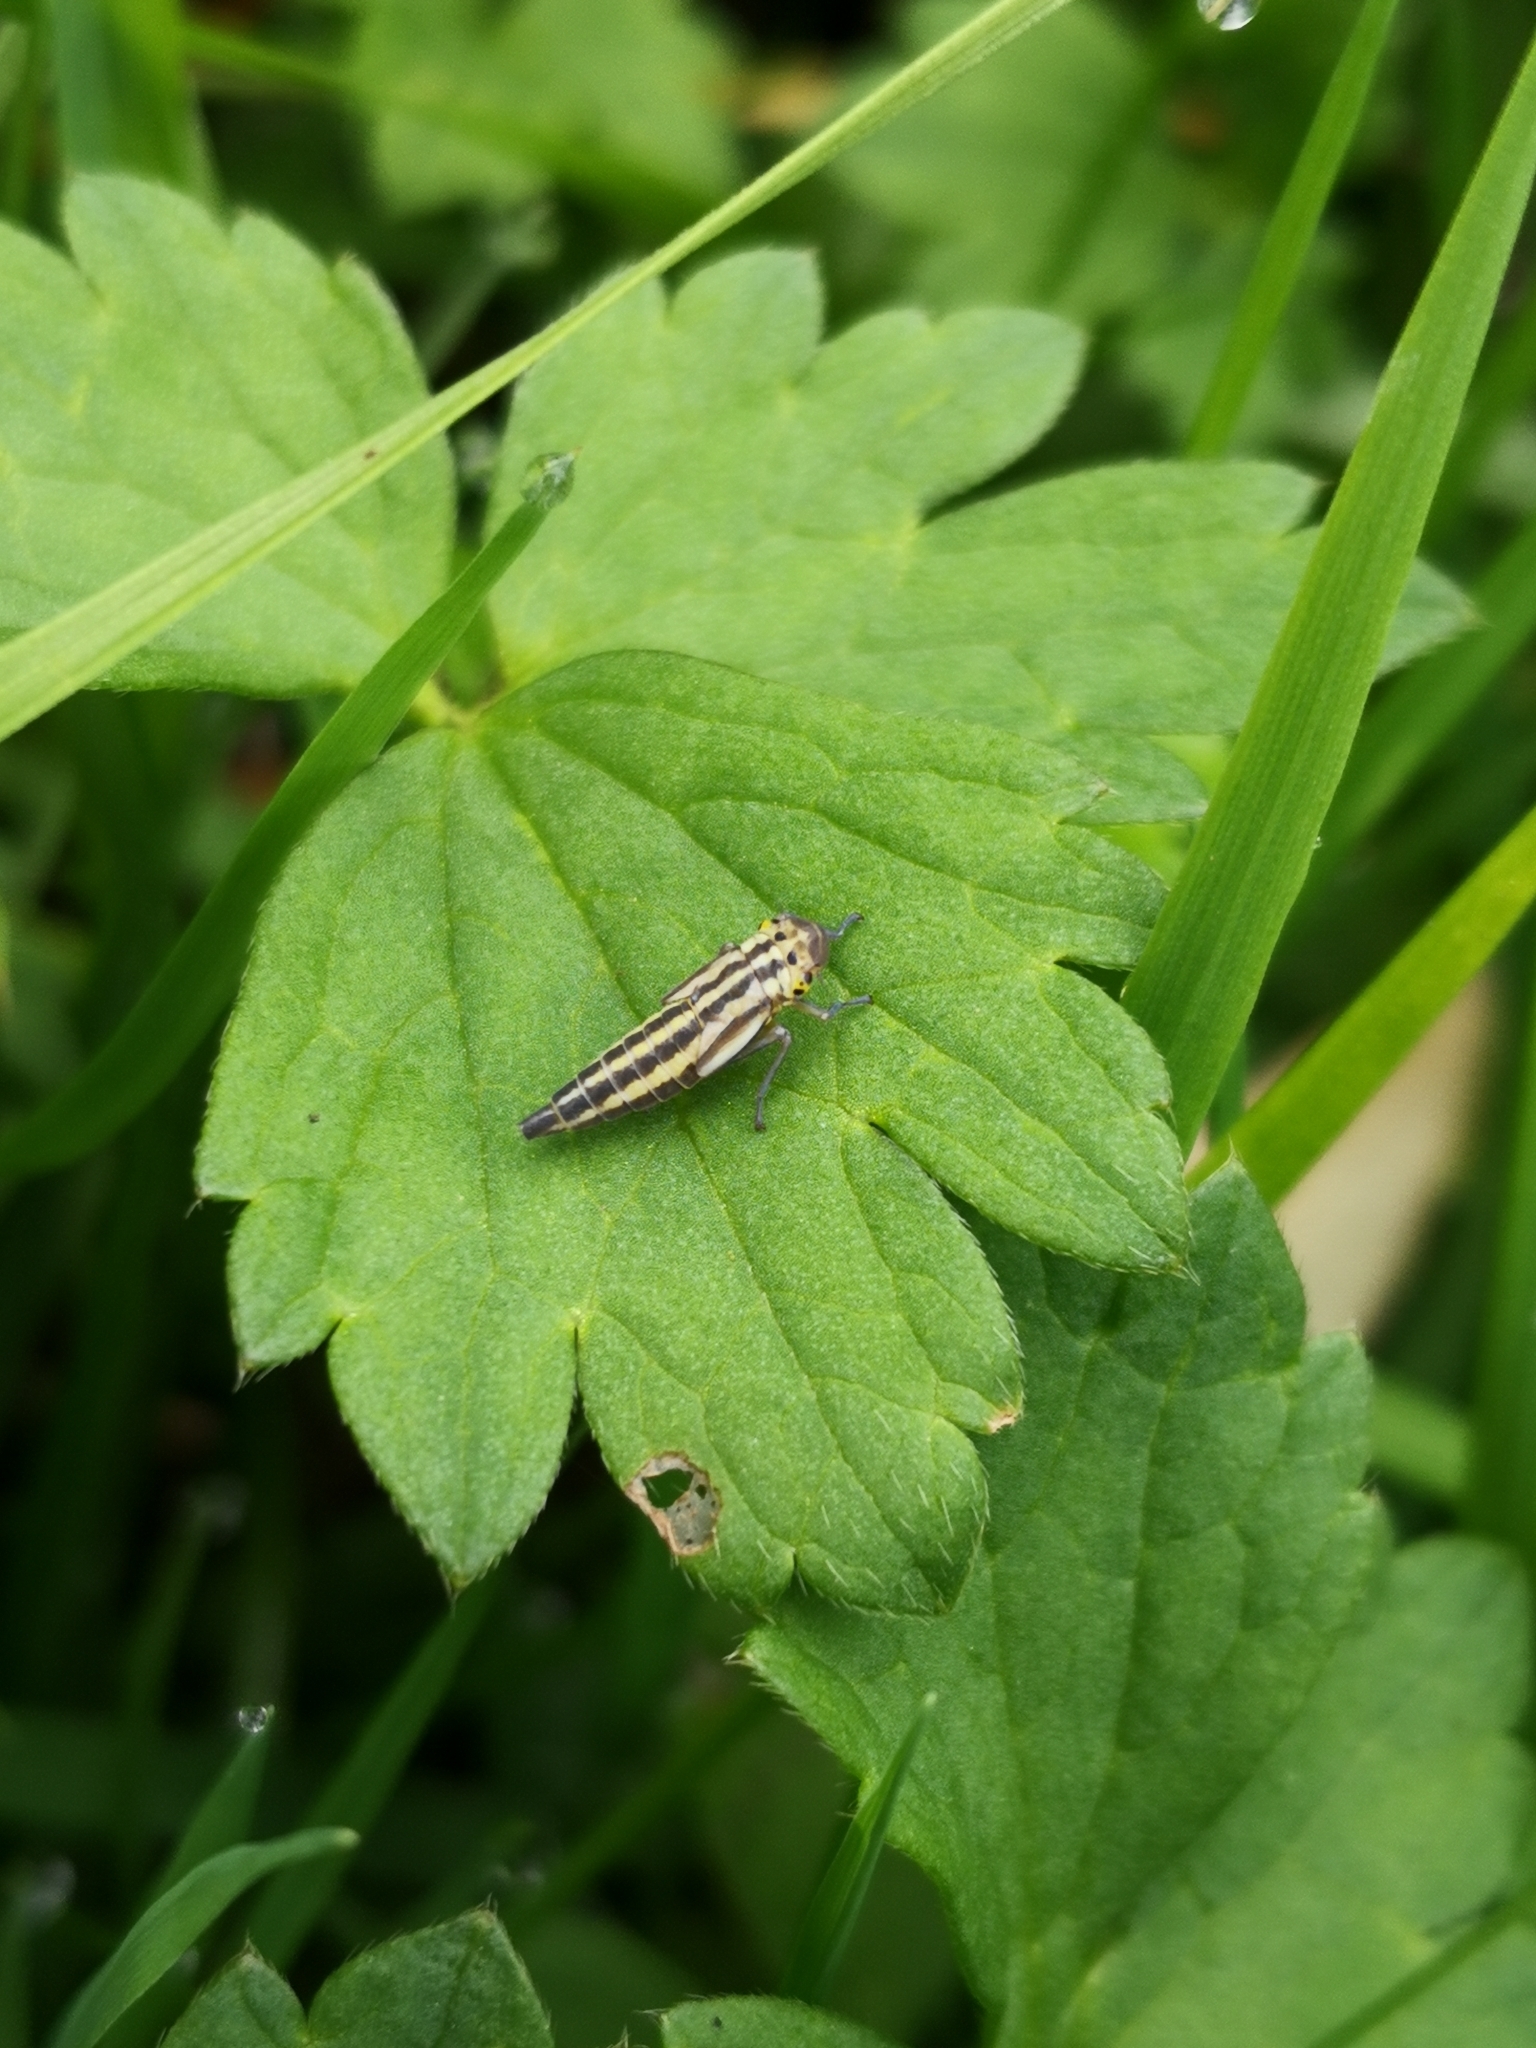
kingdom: Animalia
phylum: Arthropoda
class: Insecta
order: Hemiptera
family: Cicadellidae
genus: Cicadella
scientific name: Cicadella viridis
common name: Leafhopper
